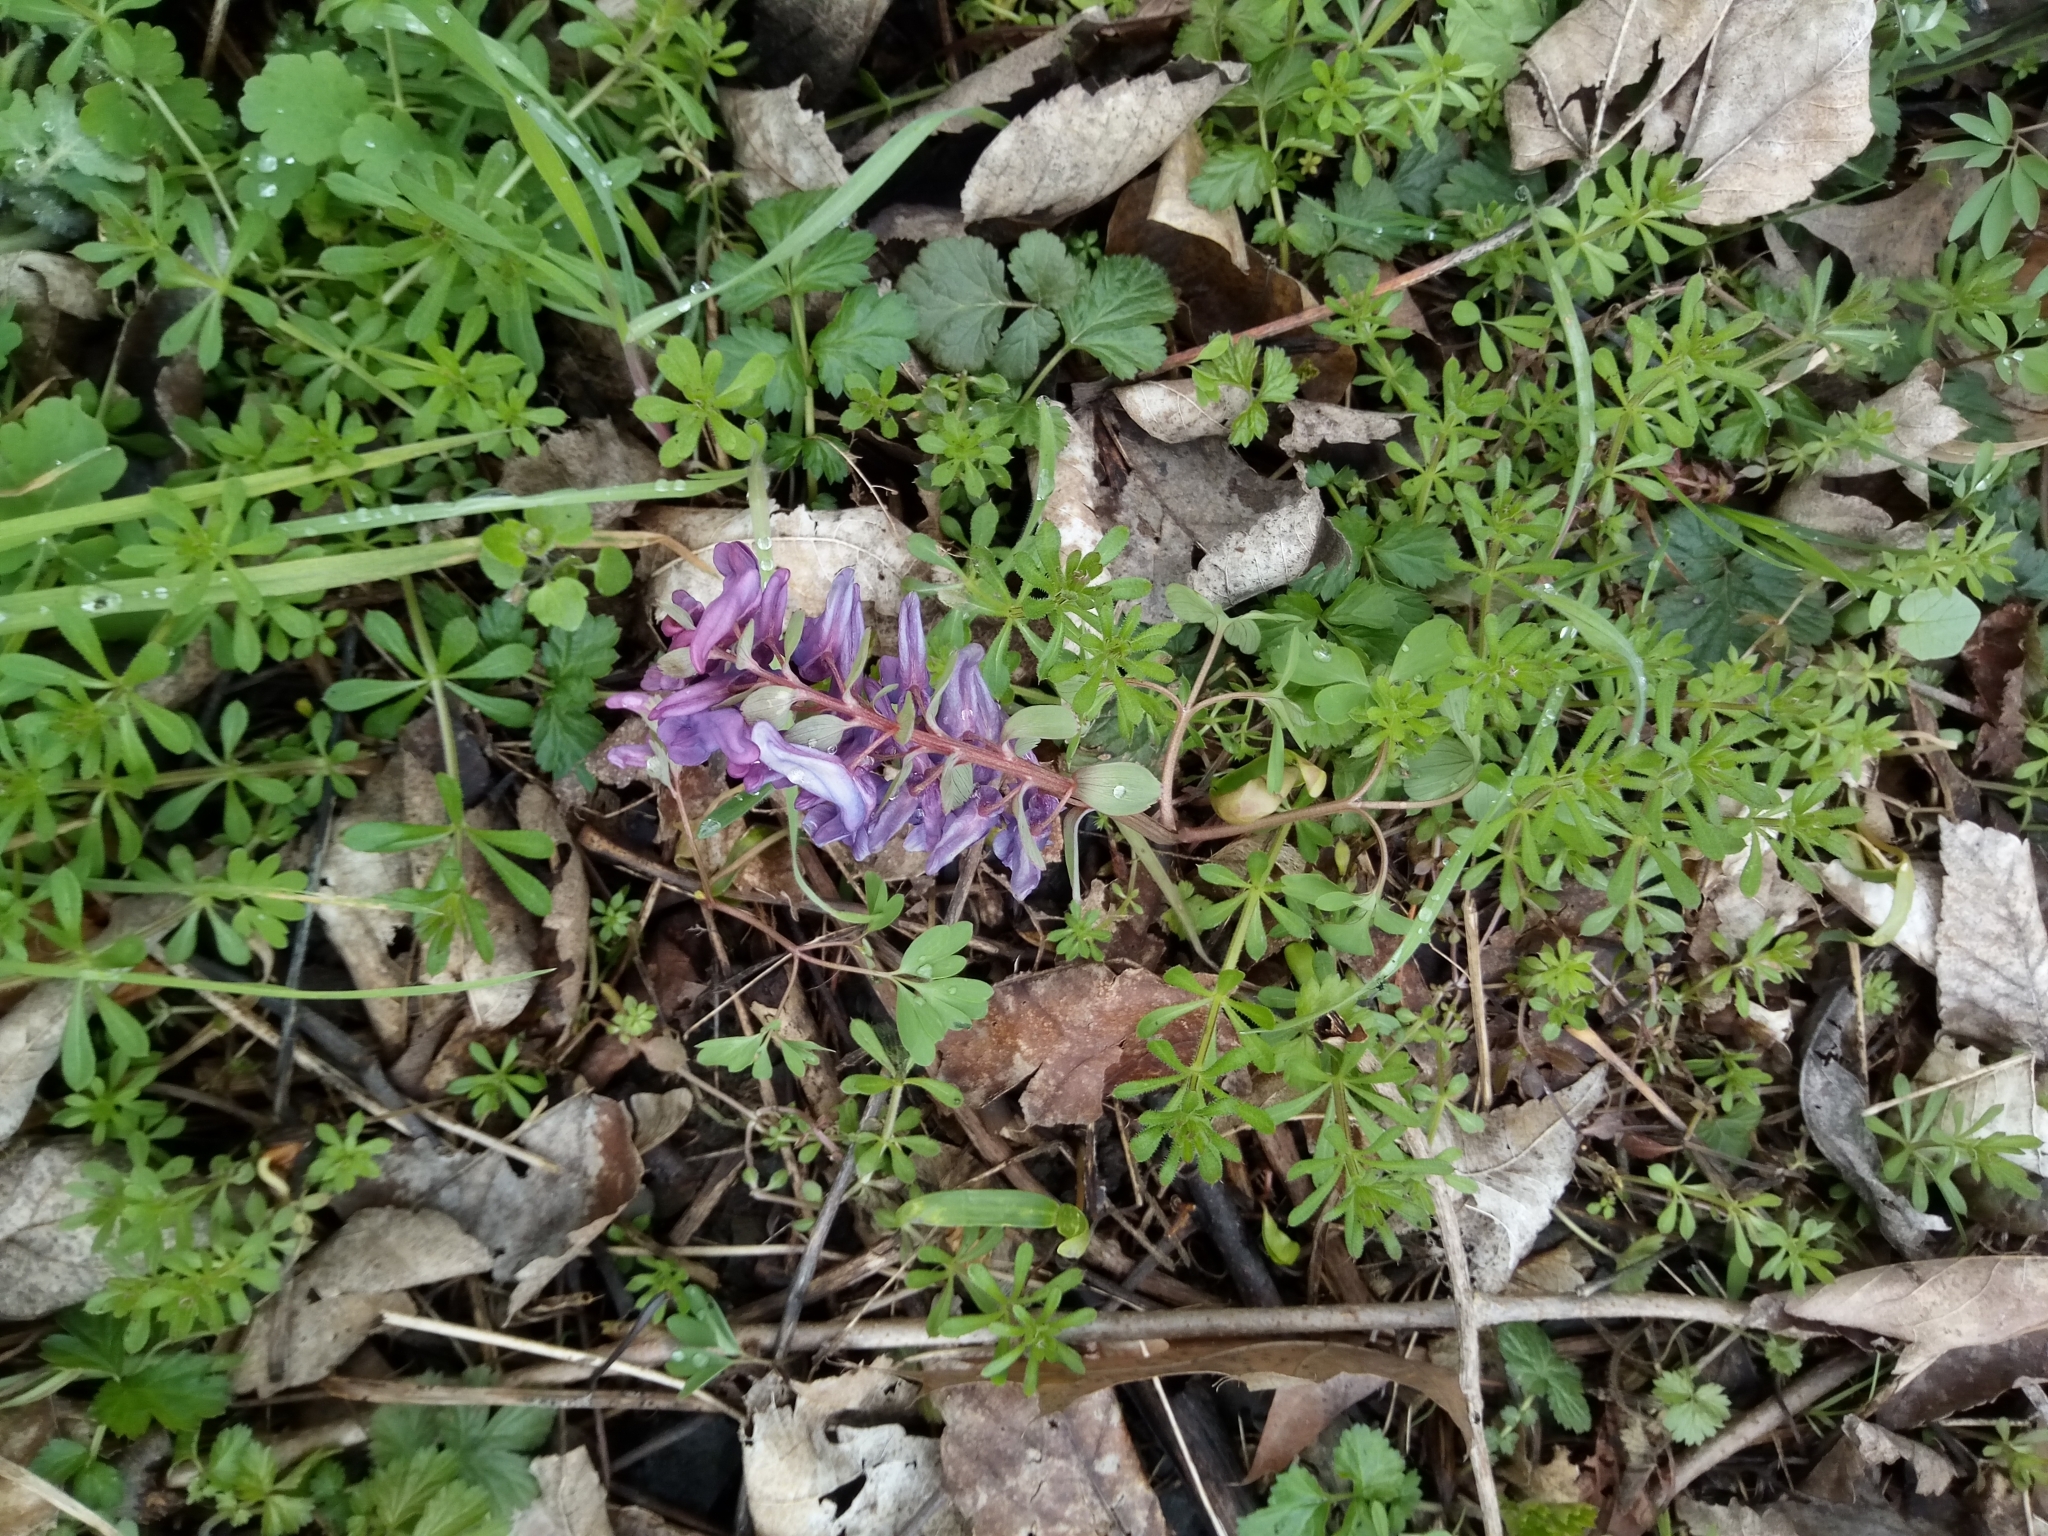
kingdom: Plantae
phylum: Tracheophyta
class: Magnoliopsida
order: Ranunculales
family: Papaveraceae
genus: Corydalis
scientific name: Corydalis solida
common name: Bird-in-a-bush
